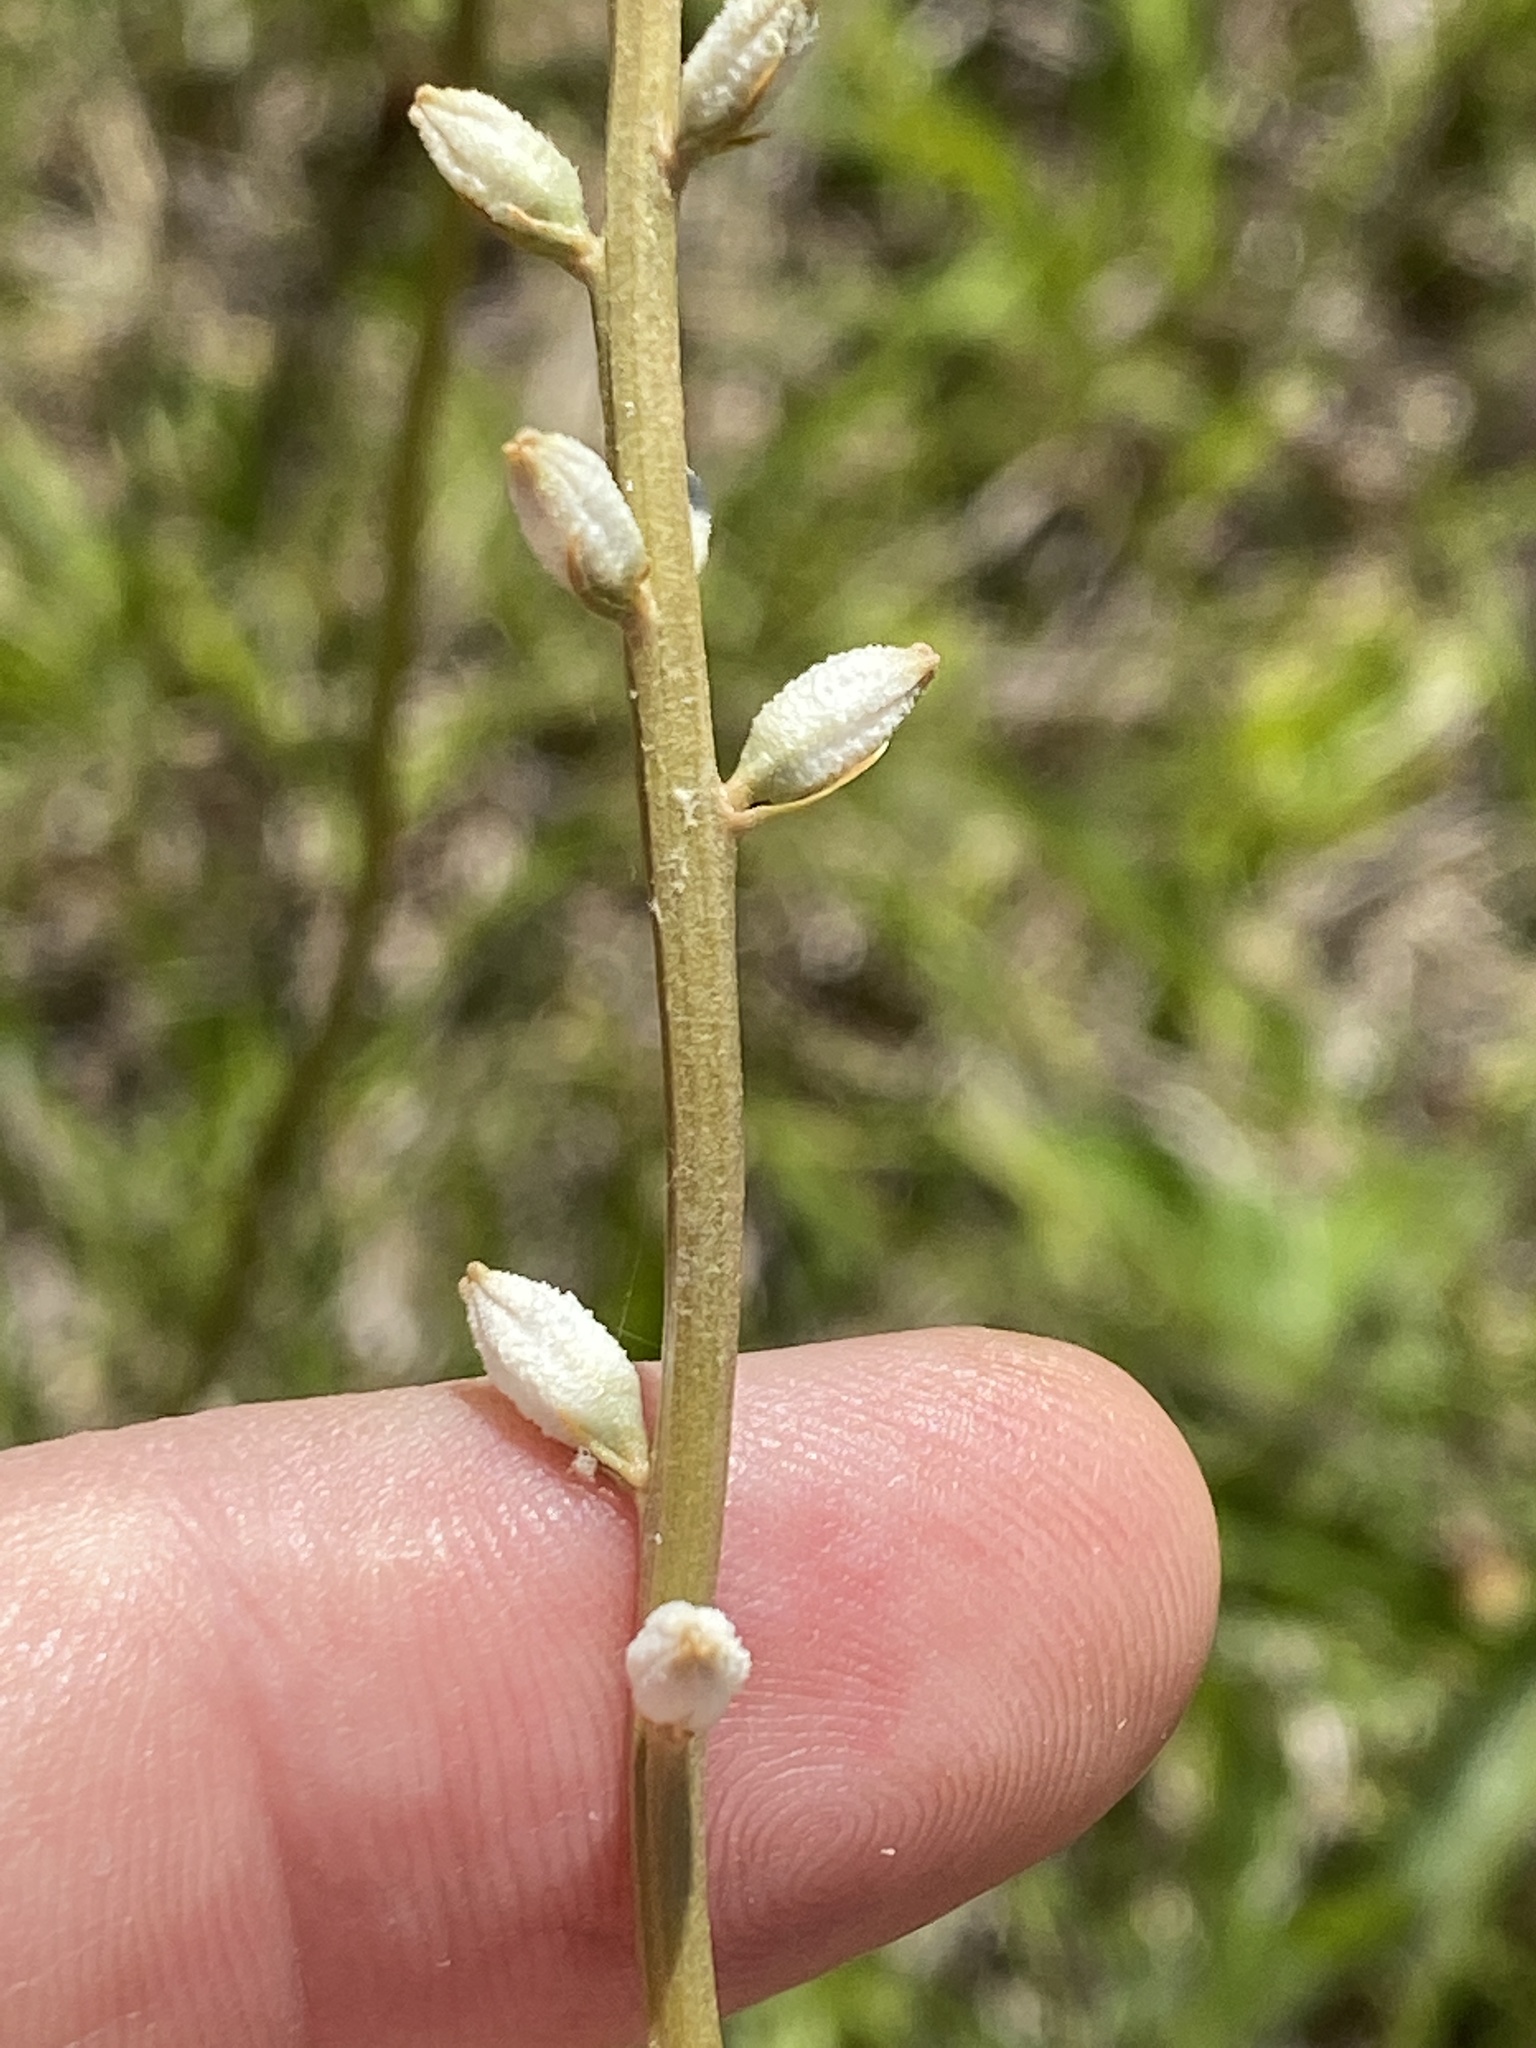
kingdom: Plantae
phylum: Tracheophyta
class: Liliopsida
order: Dioscoreales
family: Nartheciaceae
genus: Aletris
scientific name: Aletris farinosa
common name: Colicroot
